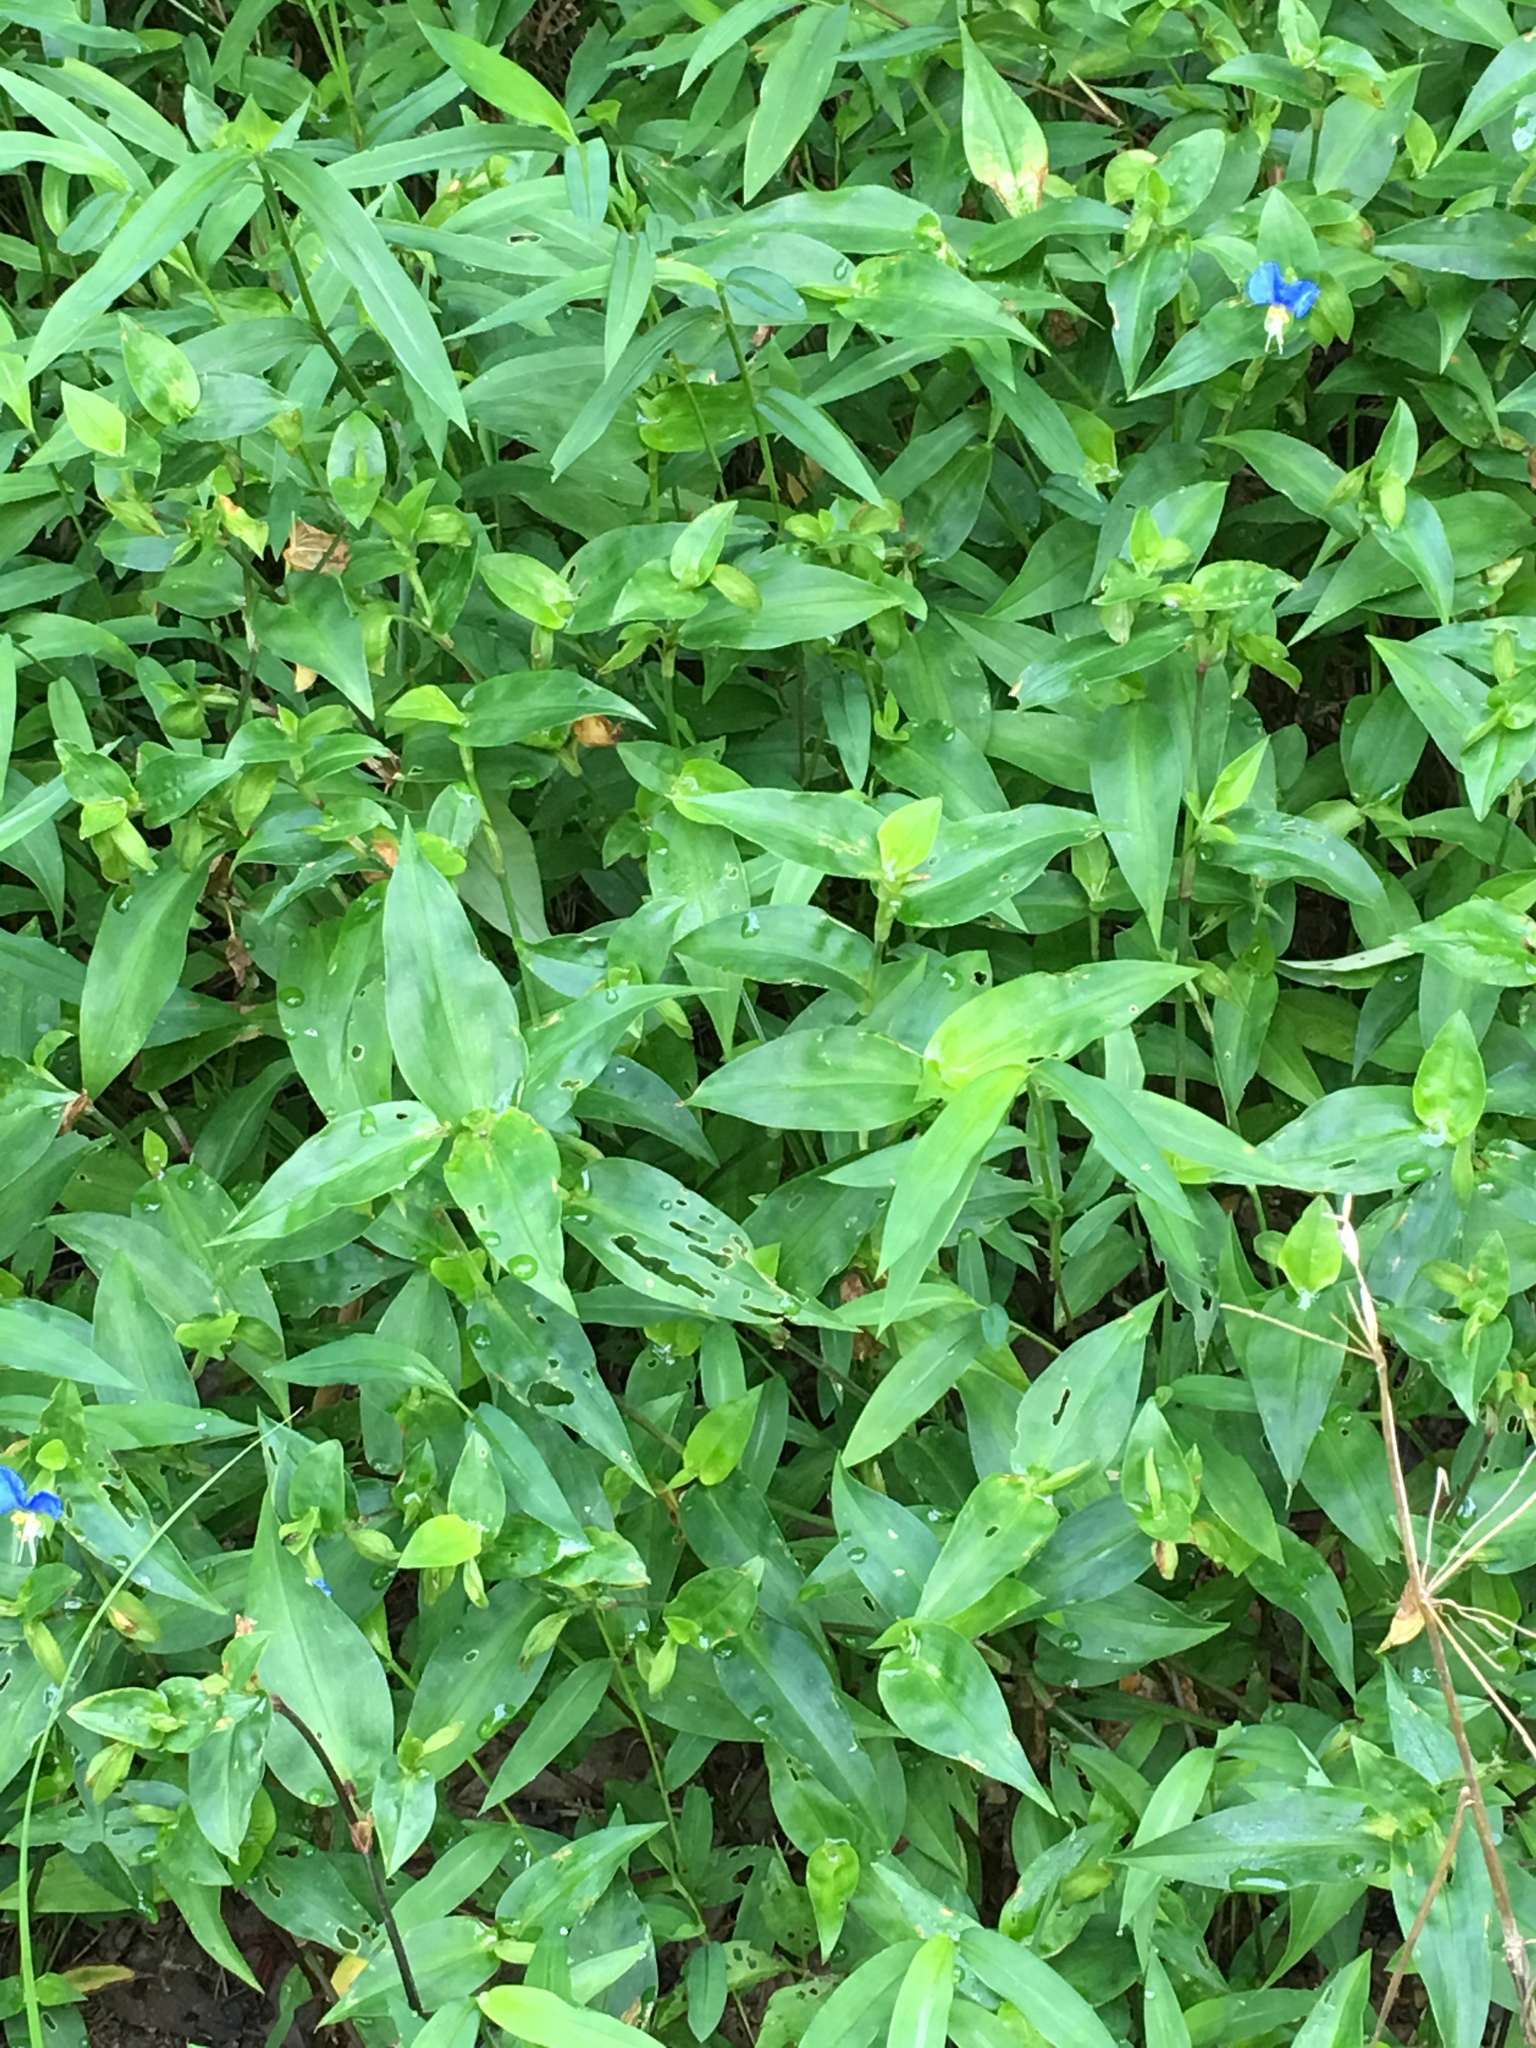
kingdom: Plantae
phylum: Tracheophyta
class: Liliopsida
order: Commelinales
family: Commelinaceae
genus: Commelina
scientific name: Commelina communis
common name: Asiatic dayflower
